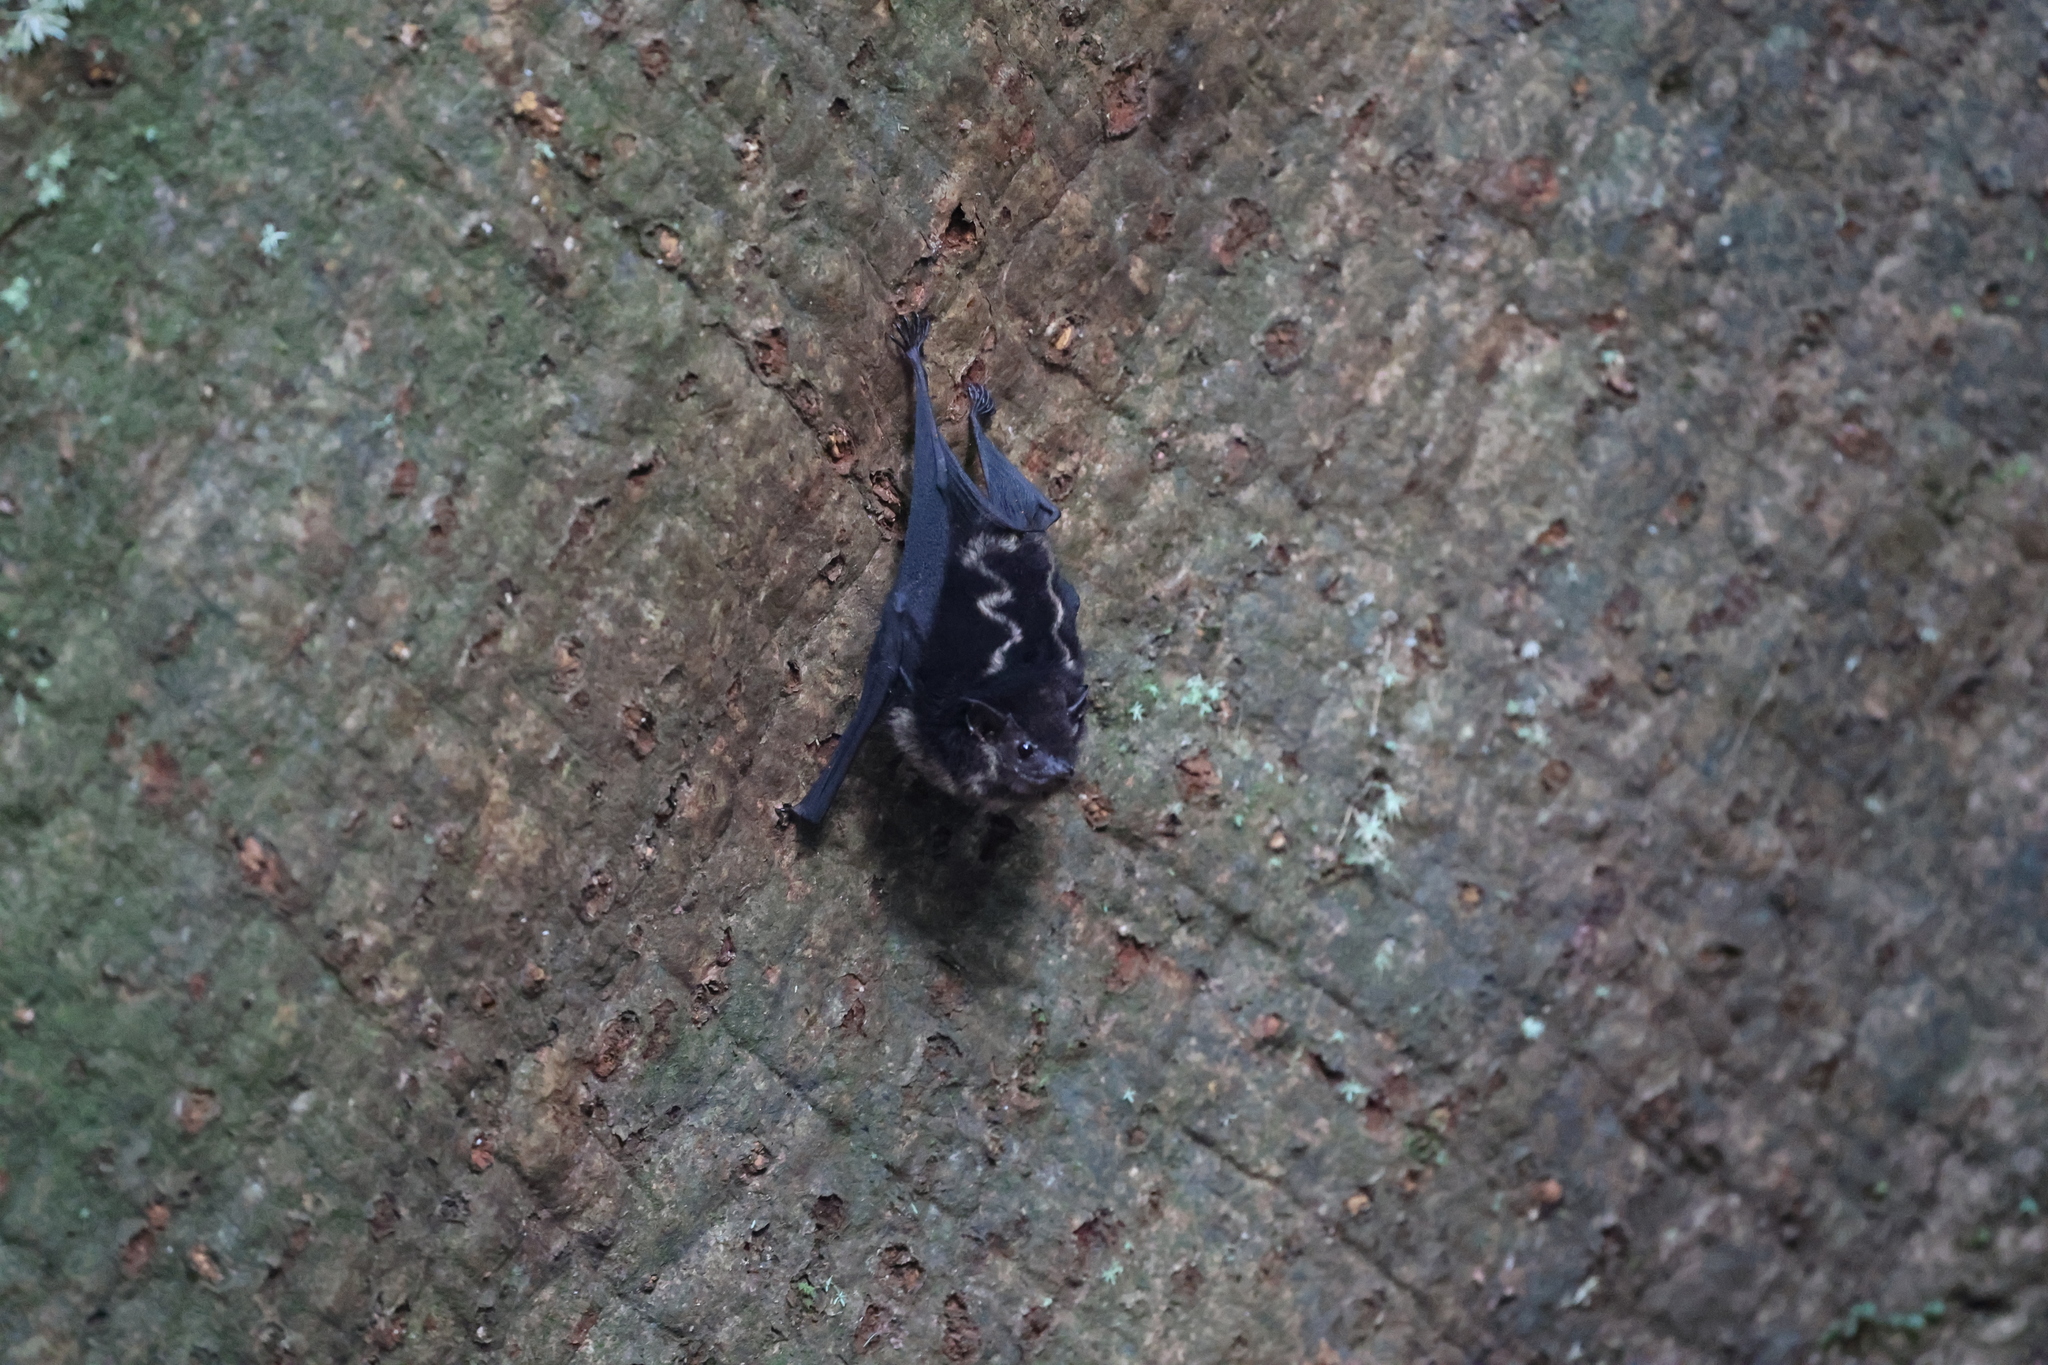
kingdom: Animalia
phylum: Chordata
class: Mammalia
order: Chiroptera
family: Emballonuridae
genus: Saccopteryx
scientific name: Saccopteryx bilineata
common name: Greater sac-winged bat
